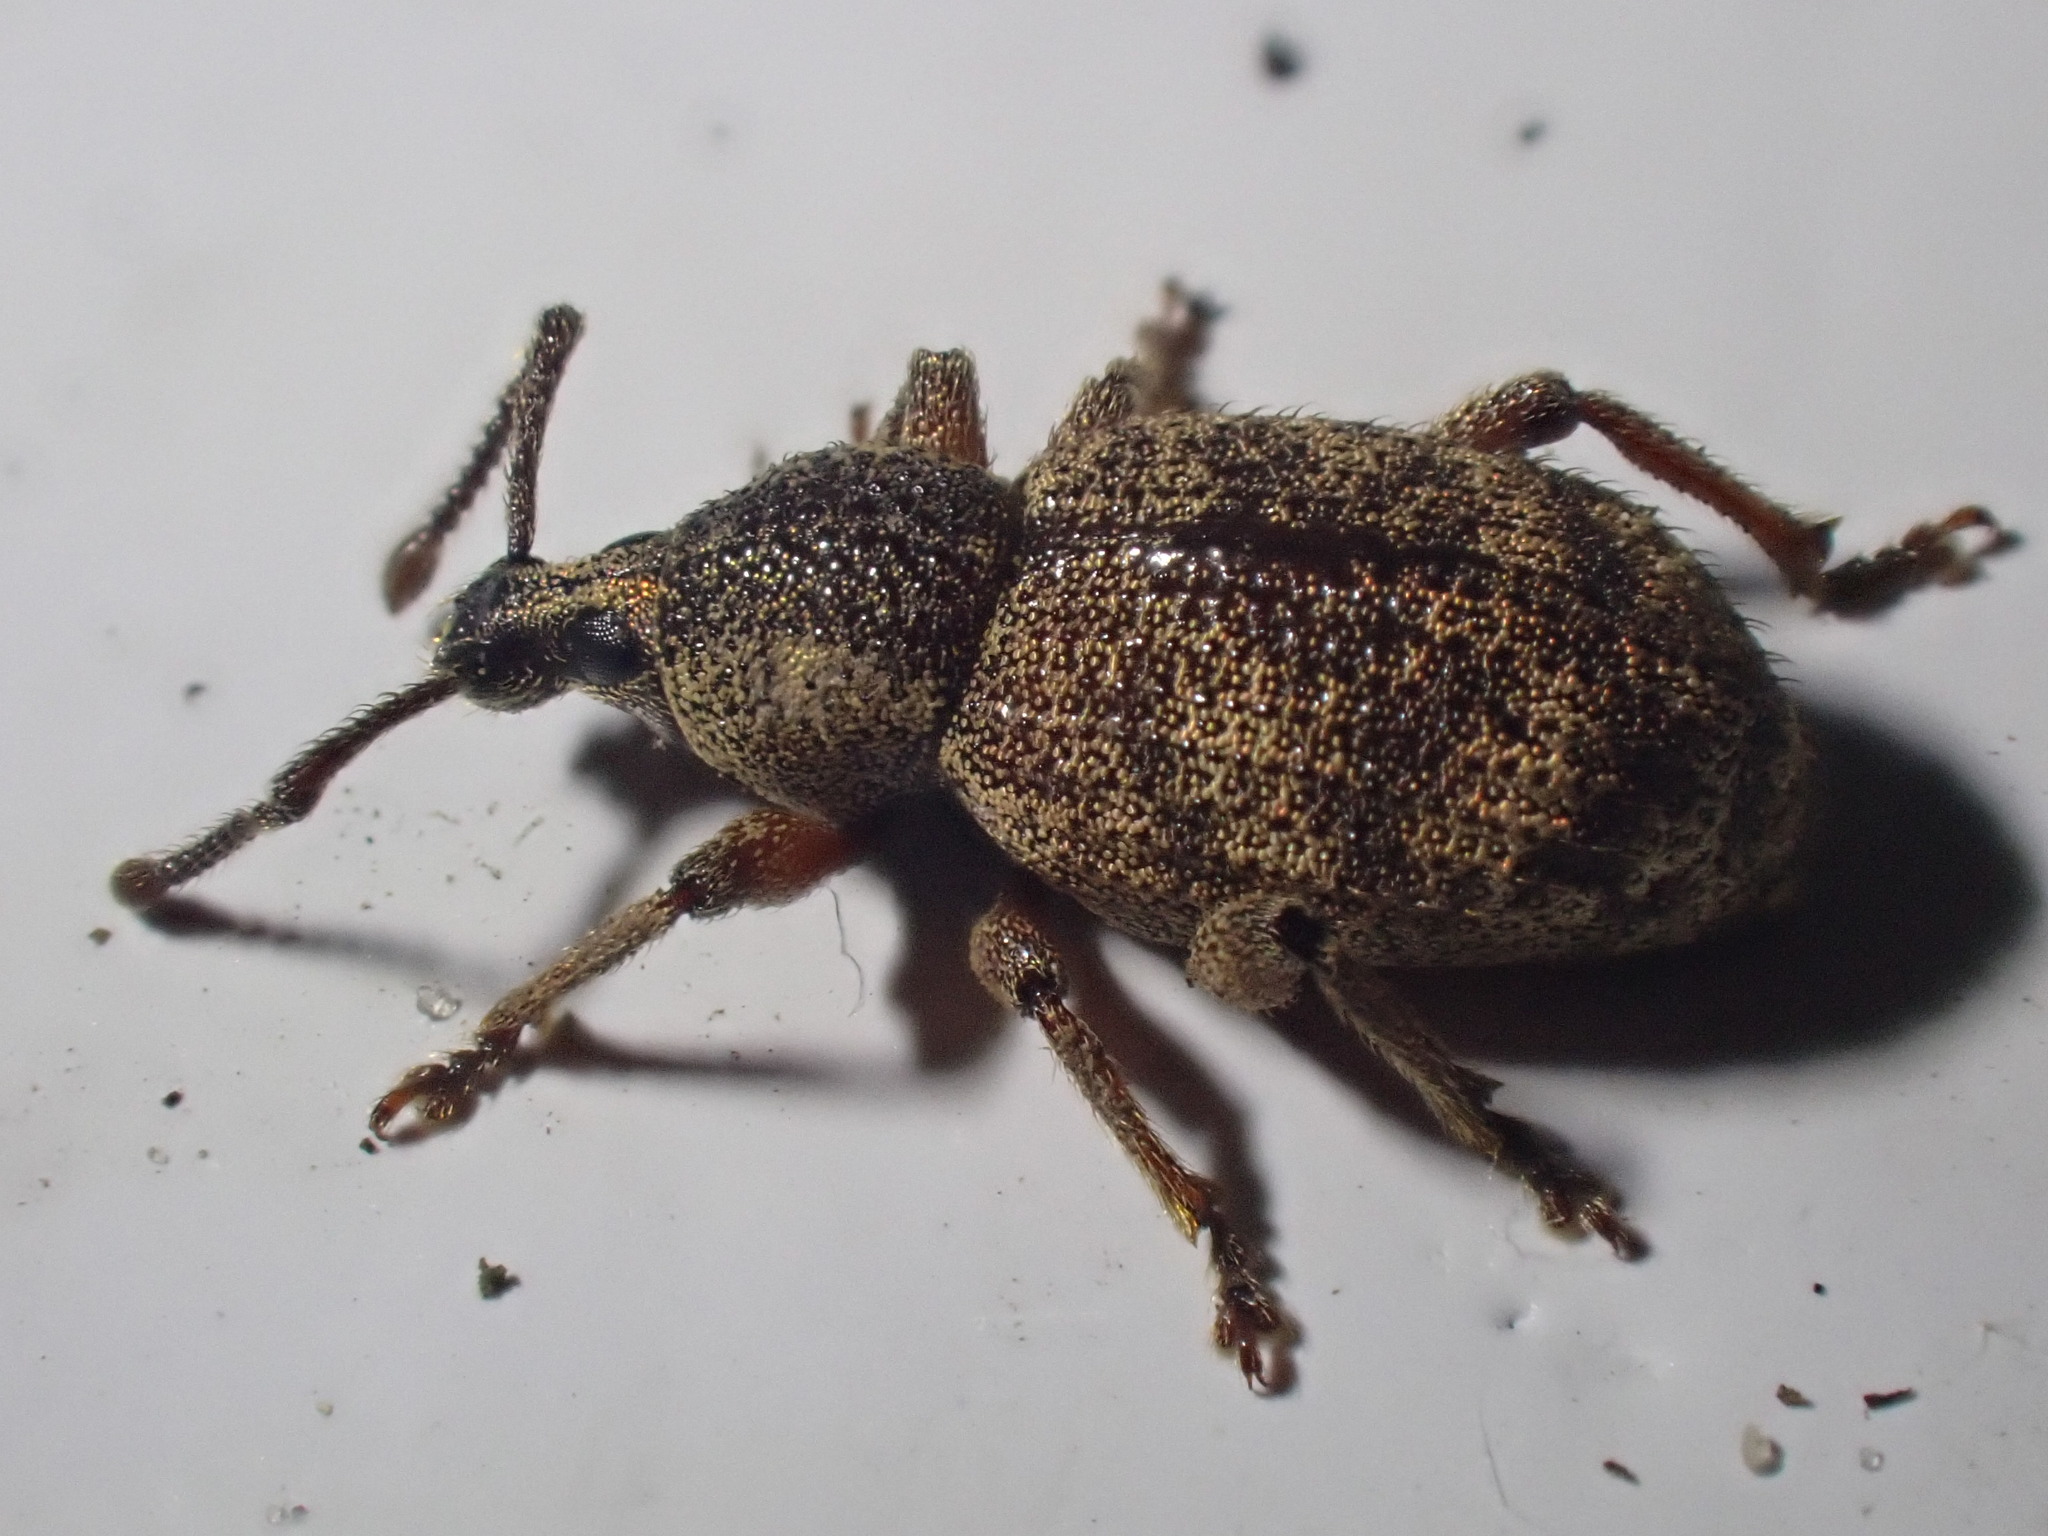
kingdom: Animalia
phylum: Arthropoda
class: Insecta
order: Coleoptera
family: Curculionidae
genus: Otiorhynchus
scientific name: Otiorhynchus singularis
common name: Clay-coloured weevil
